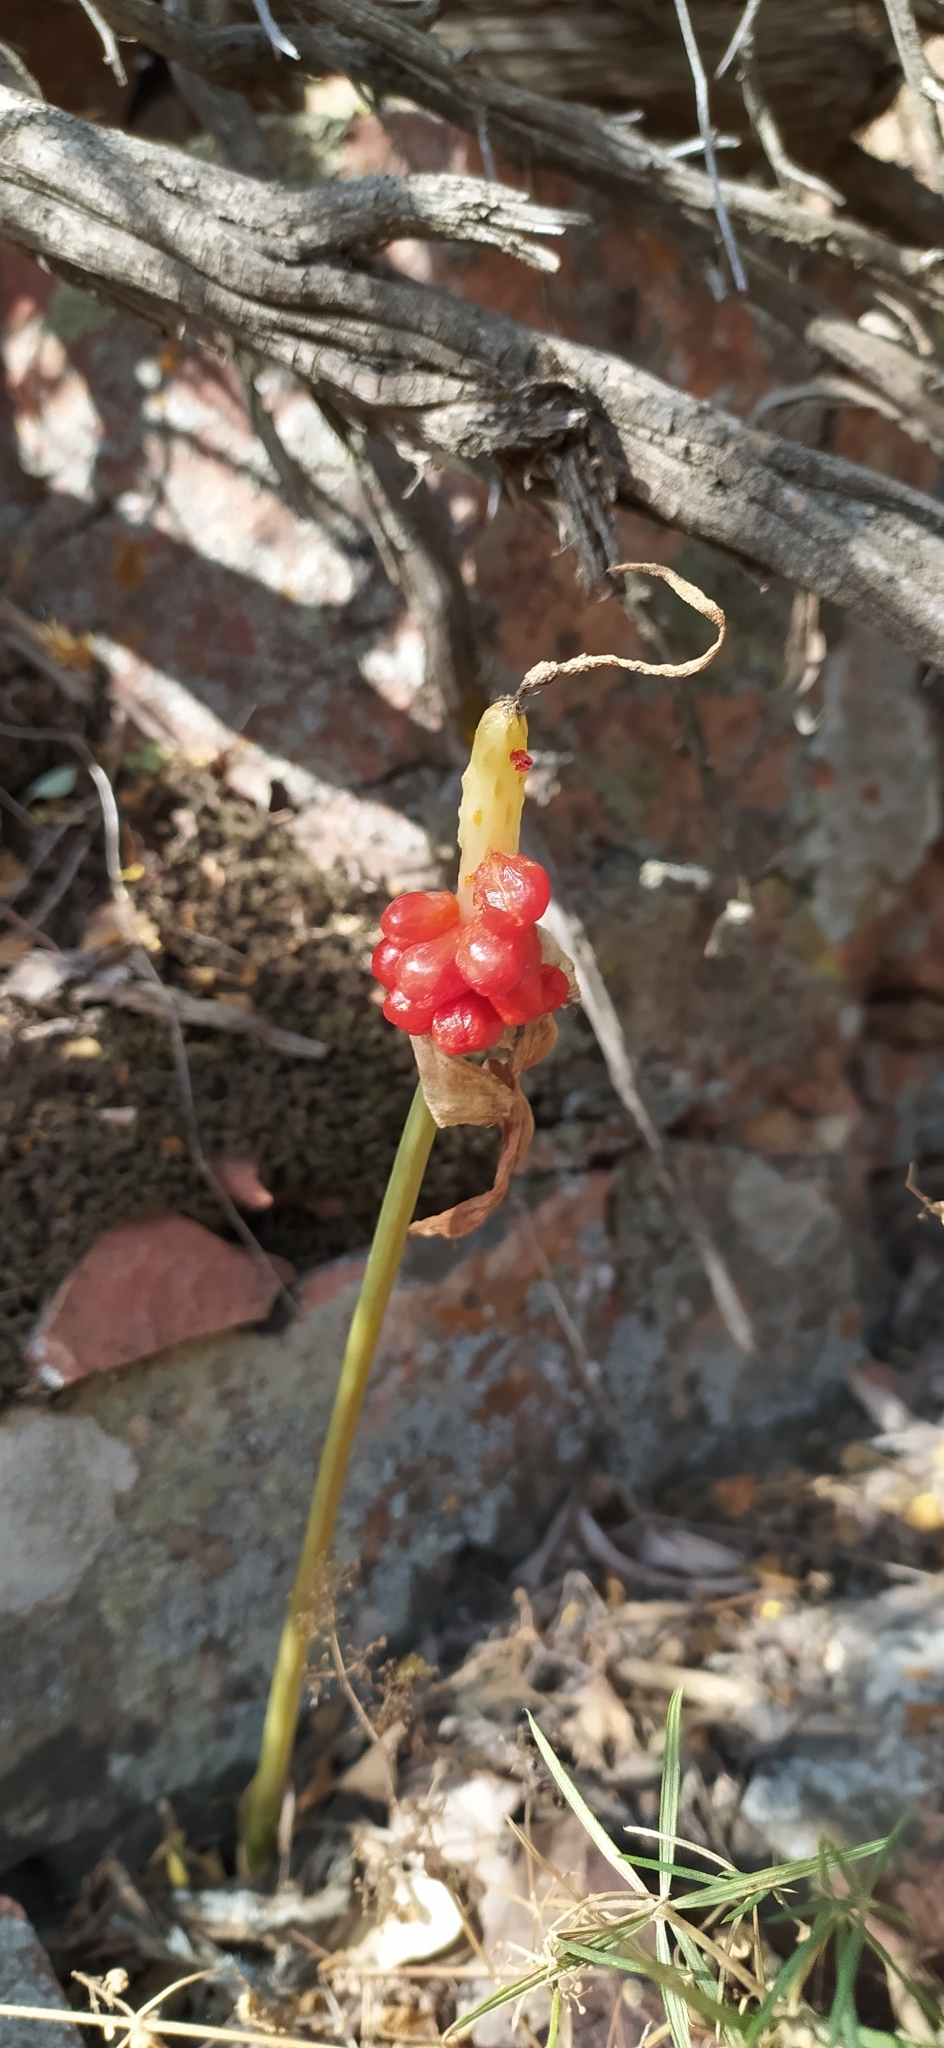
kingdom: Plantae
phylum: Tracheophyta
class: Liliopsida
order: Alismatales
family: Araceae
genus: Arum
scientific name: Arum korolkowii
